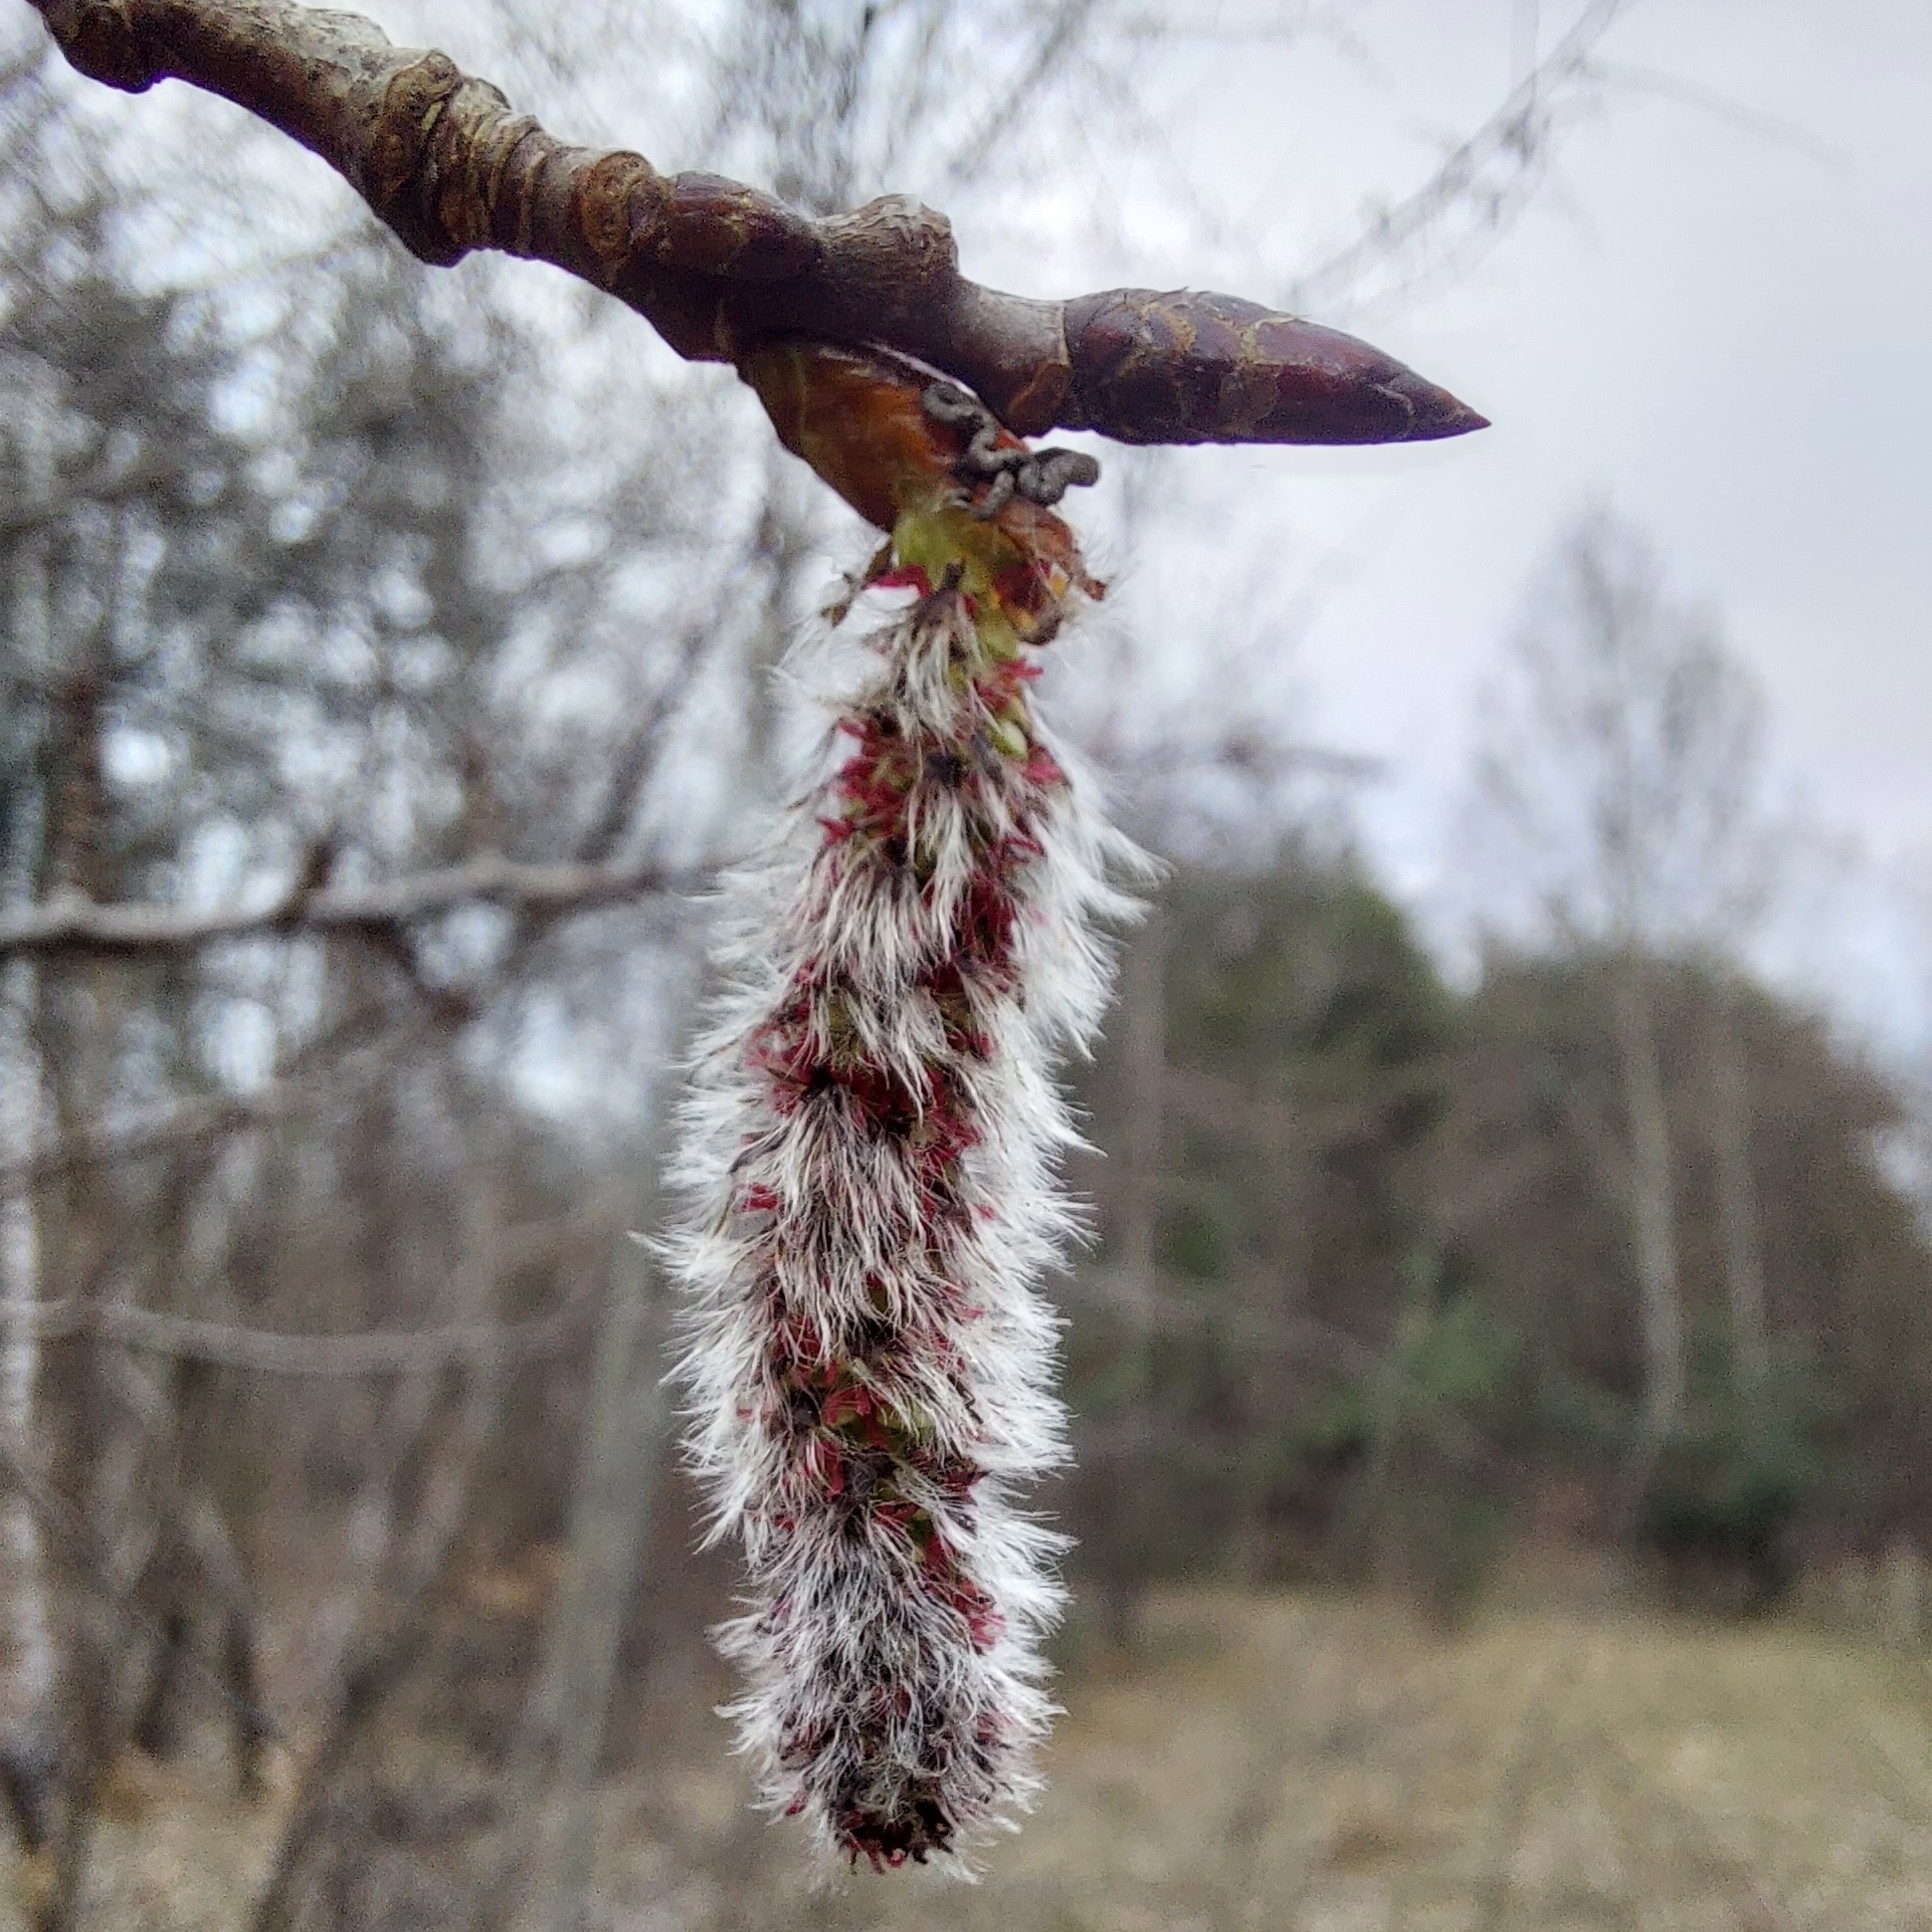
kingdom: Plantae
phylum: Tracheophyta
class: Magnoliopsida
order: Malpighiales
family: Salicaceae
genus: Populus
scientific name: Populus tremula
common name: European aspen
